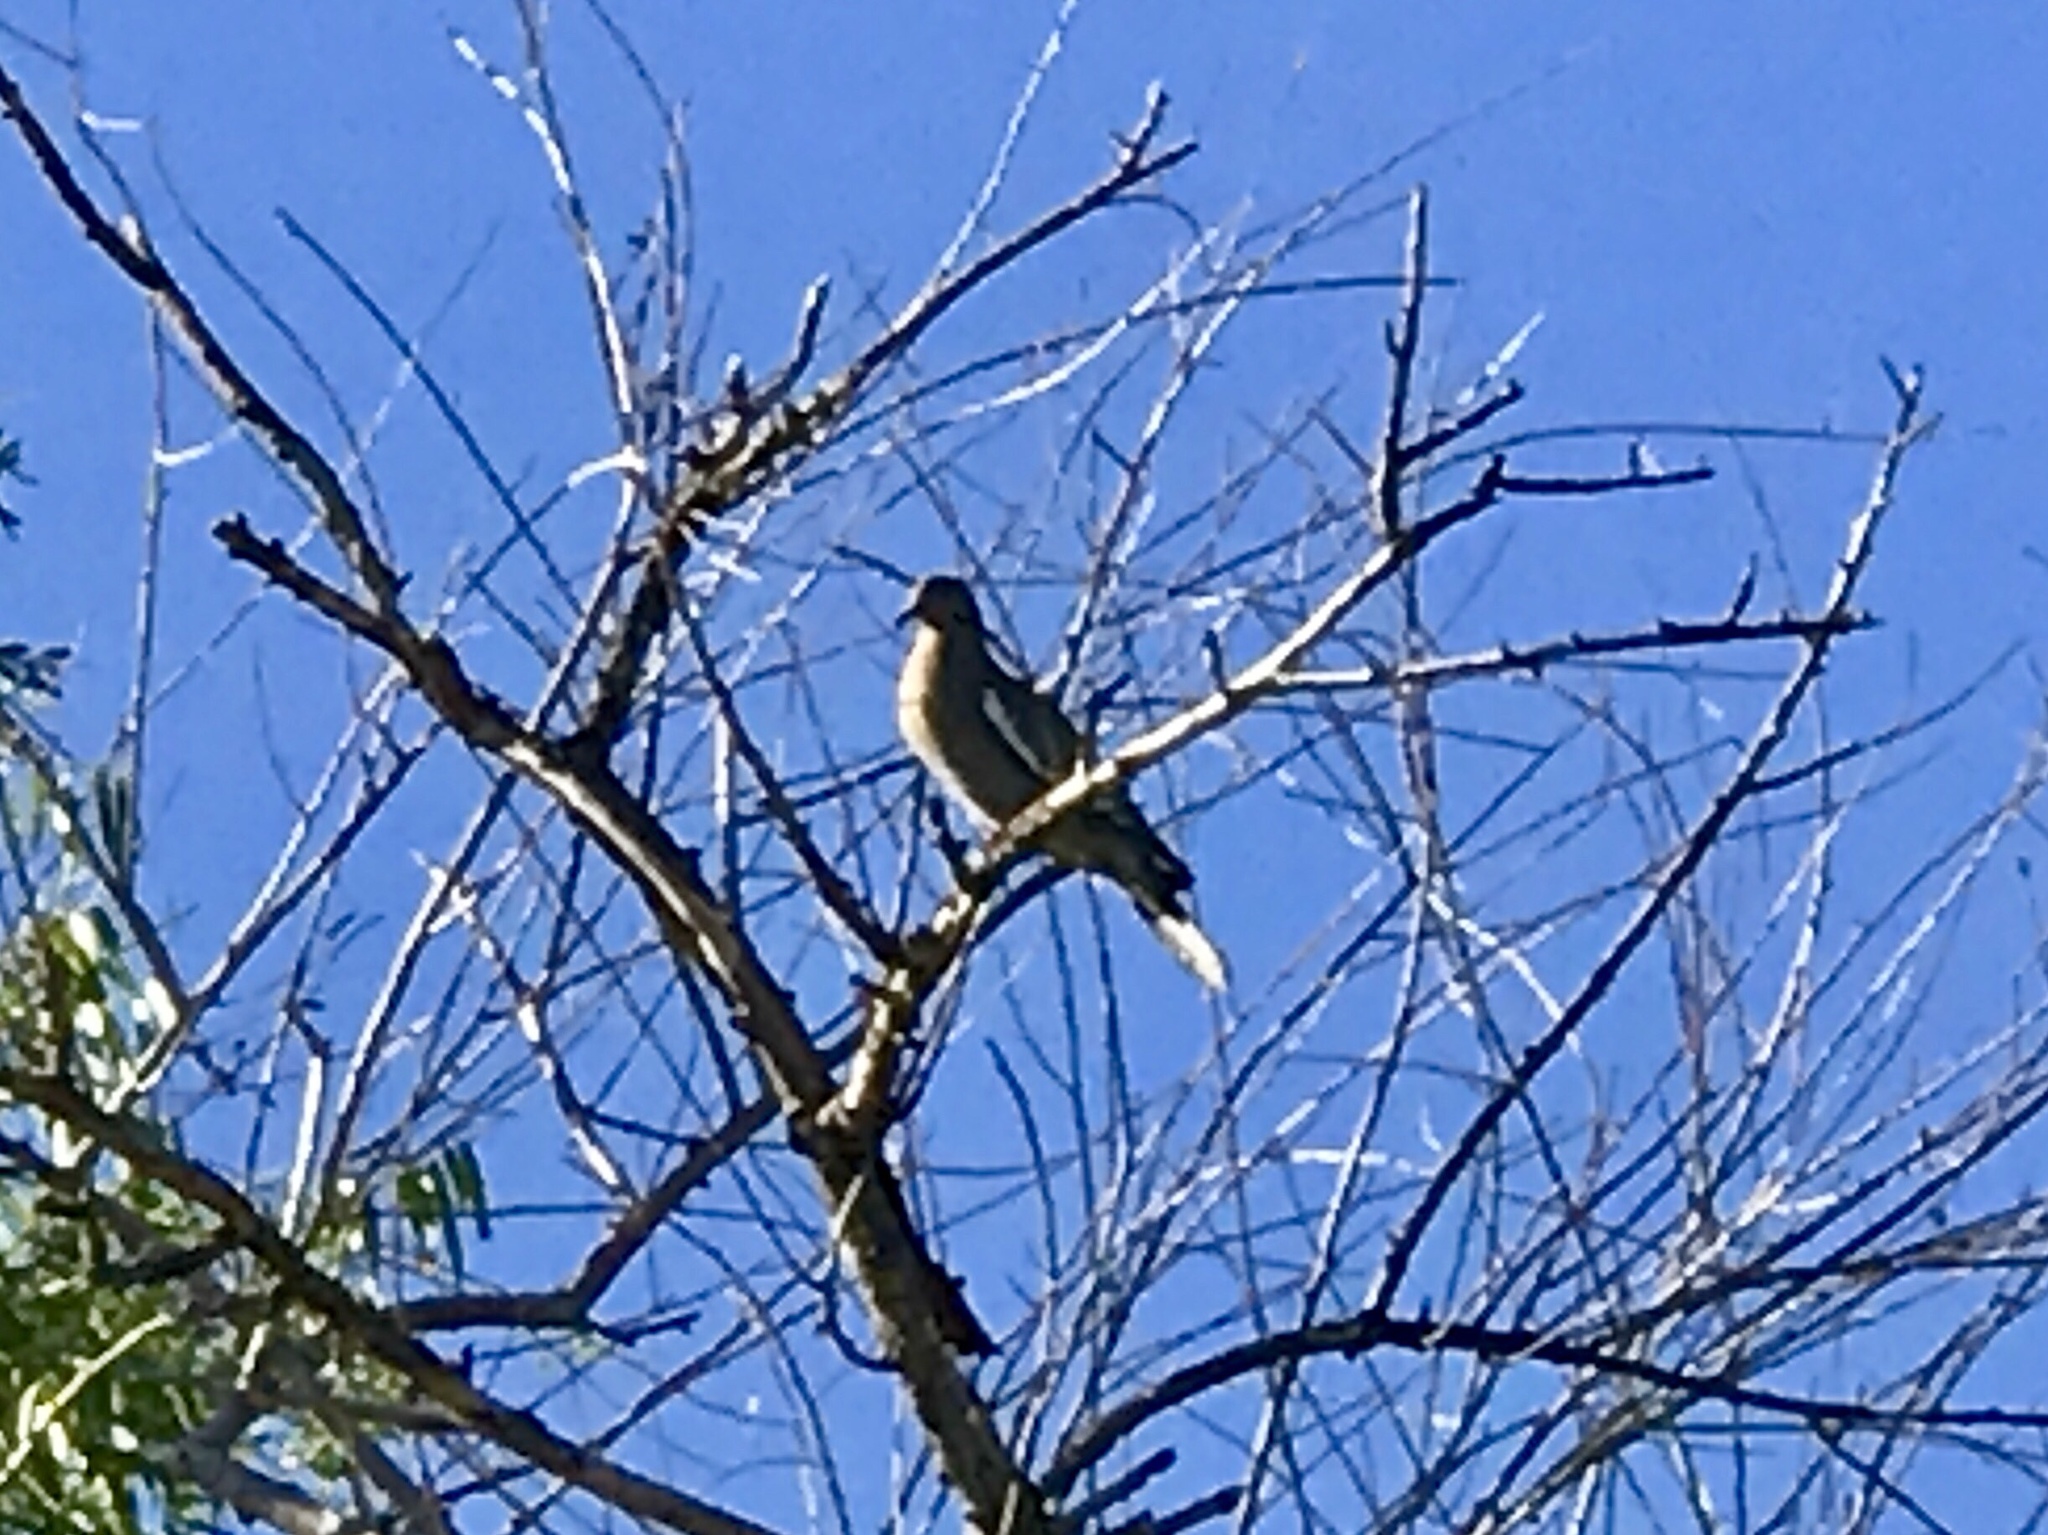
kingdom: Animalia
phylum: Chordata
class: Aves
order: Columbiformes
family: Columbidae
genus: Zenaida
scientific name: Zenaida asiatica
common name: White-winged dove
